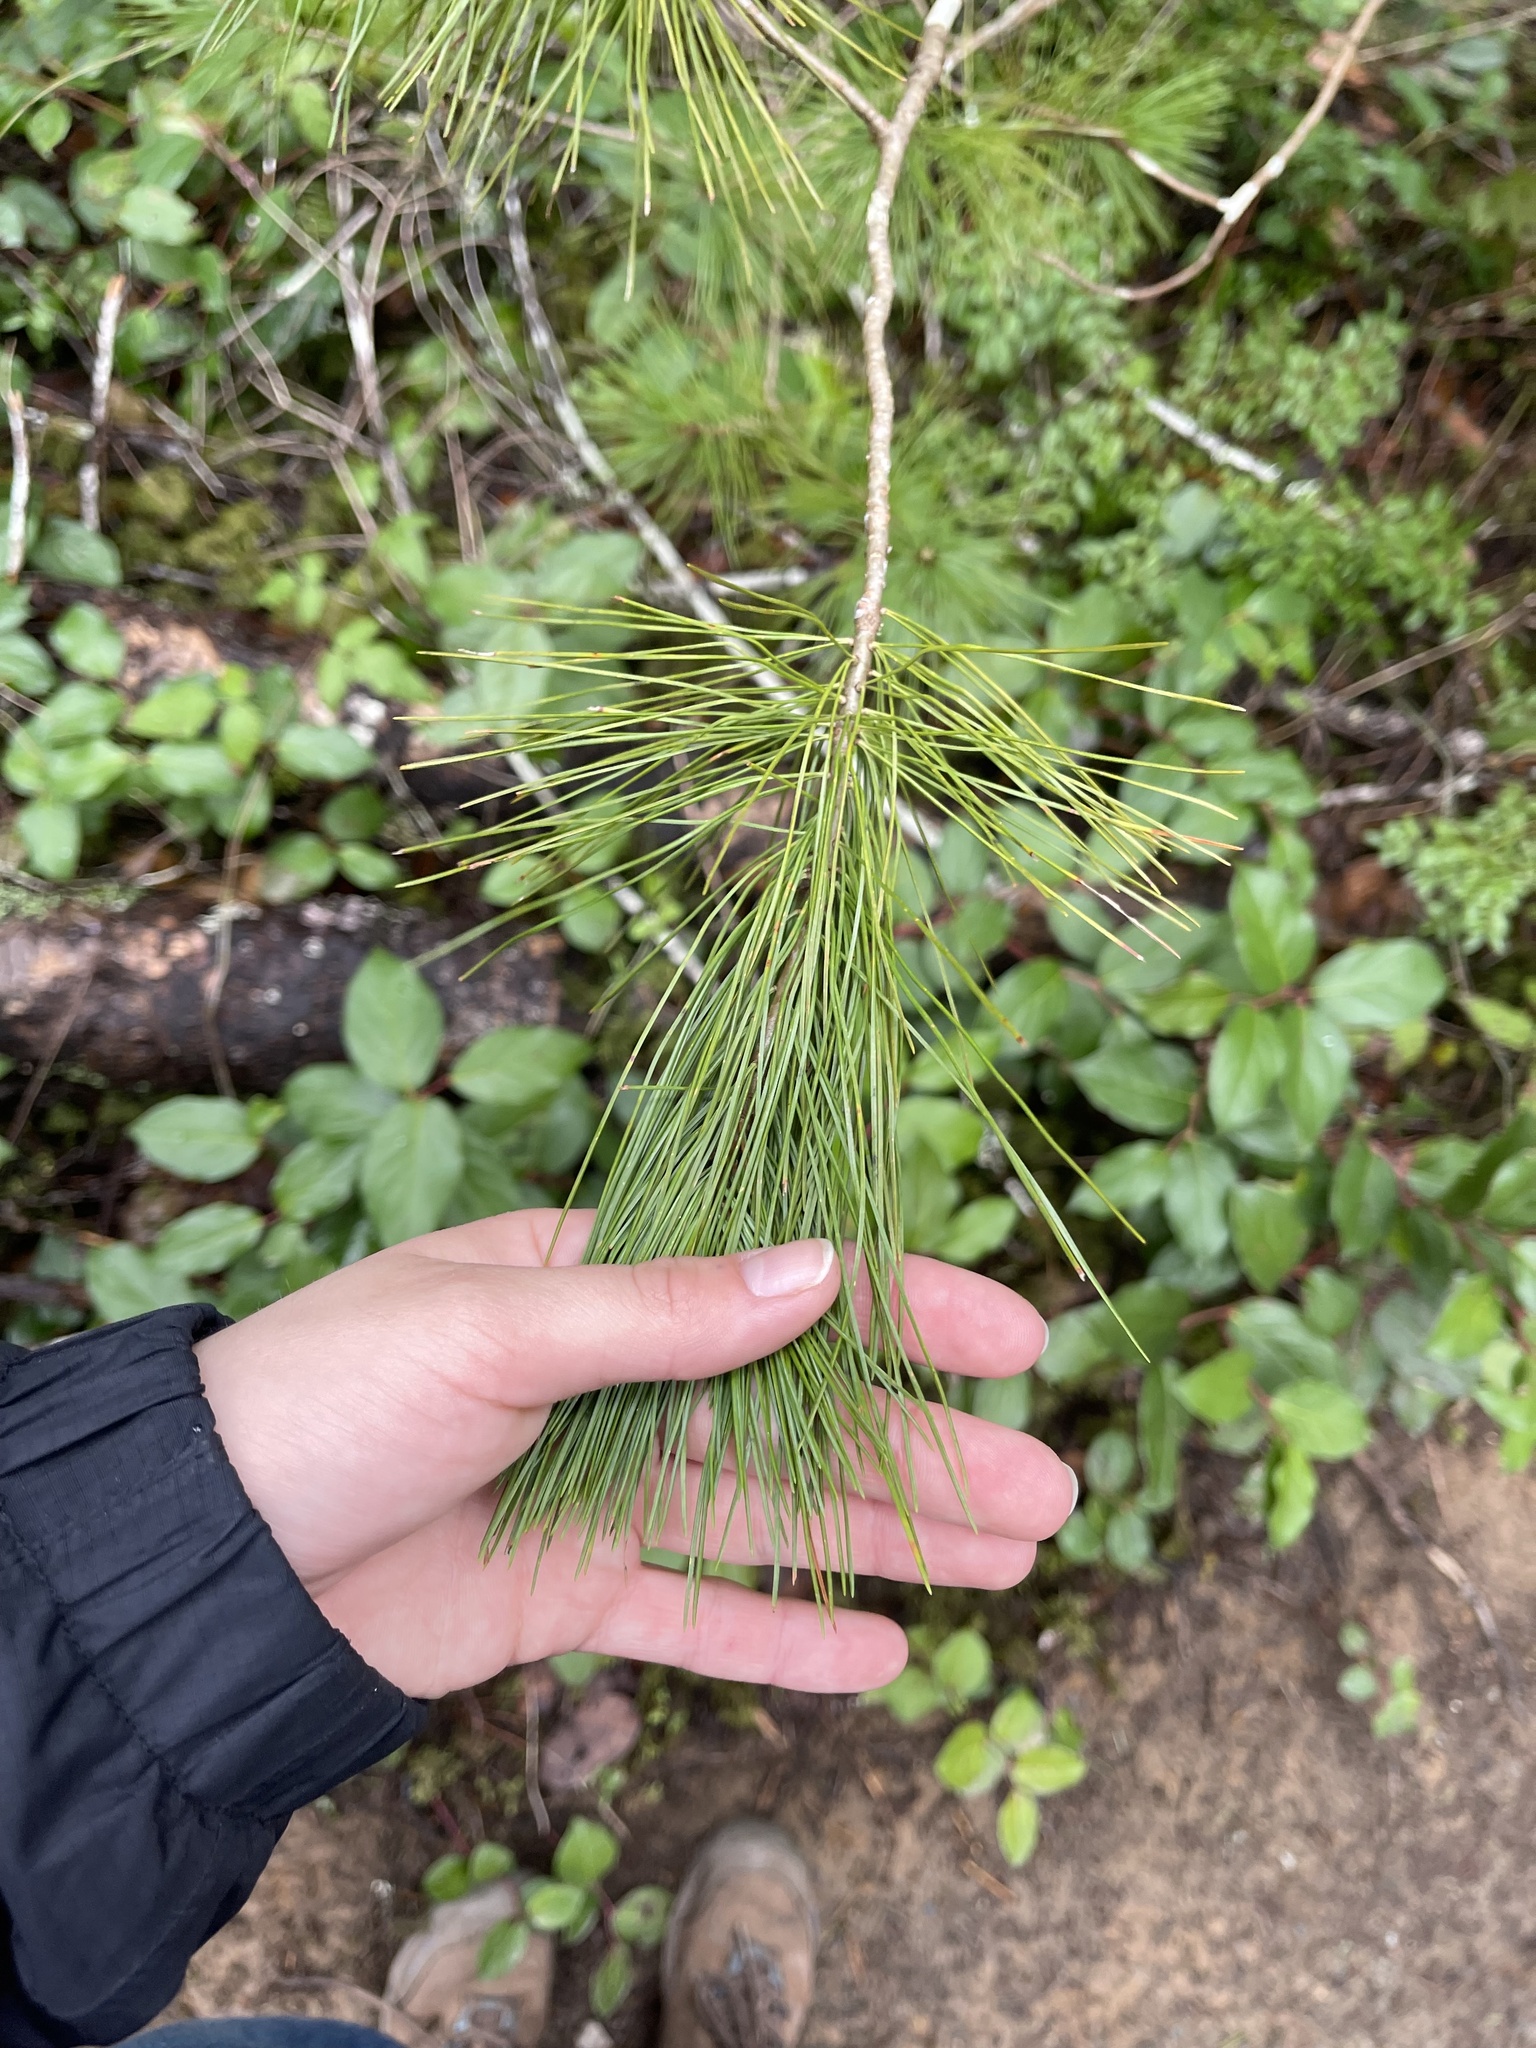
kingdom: Plantae
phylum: Tracheophyta
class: Pinopsida
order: Pinales
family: Pinaceae
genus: Pinus
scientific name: Pinus monticola
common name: Western white pine
